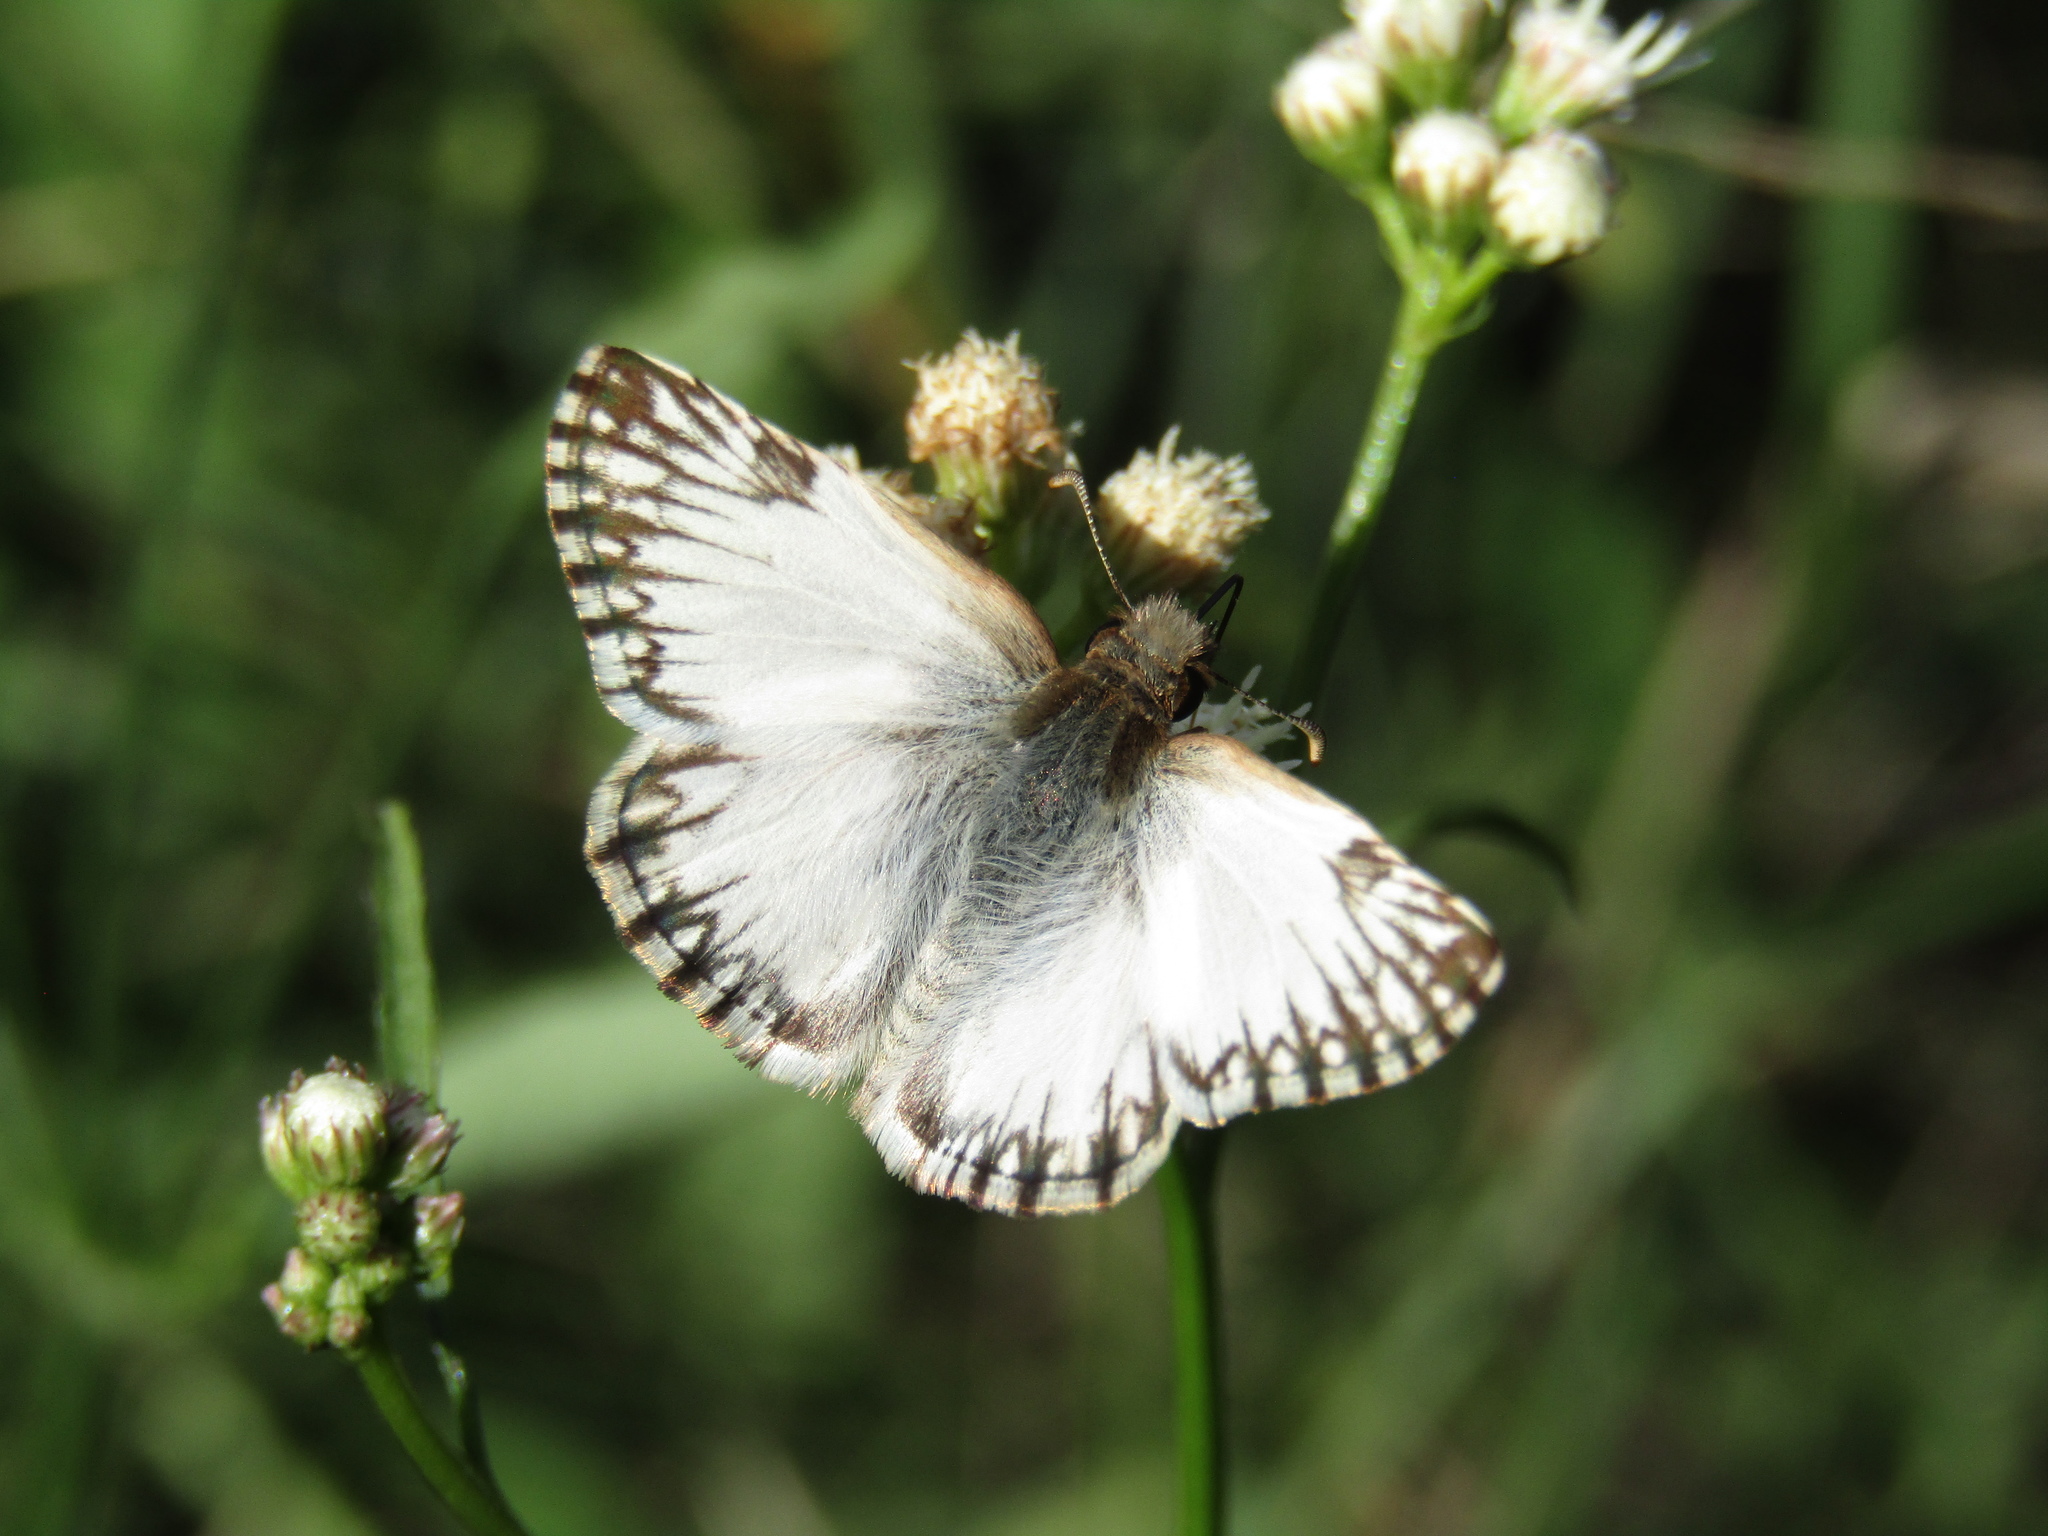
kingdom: Animalia
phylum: Arthropoda
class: Insecta
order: Lepidoptera
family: Hesperiidae
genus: Heliopetes
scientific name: Heliopetes omrina
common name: Stained white-skipper
